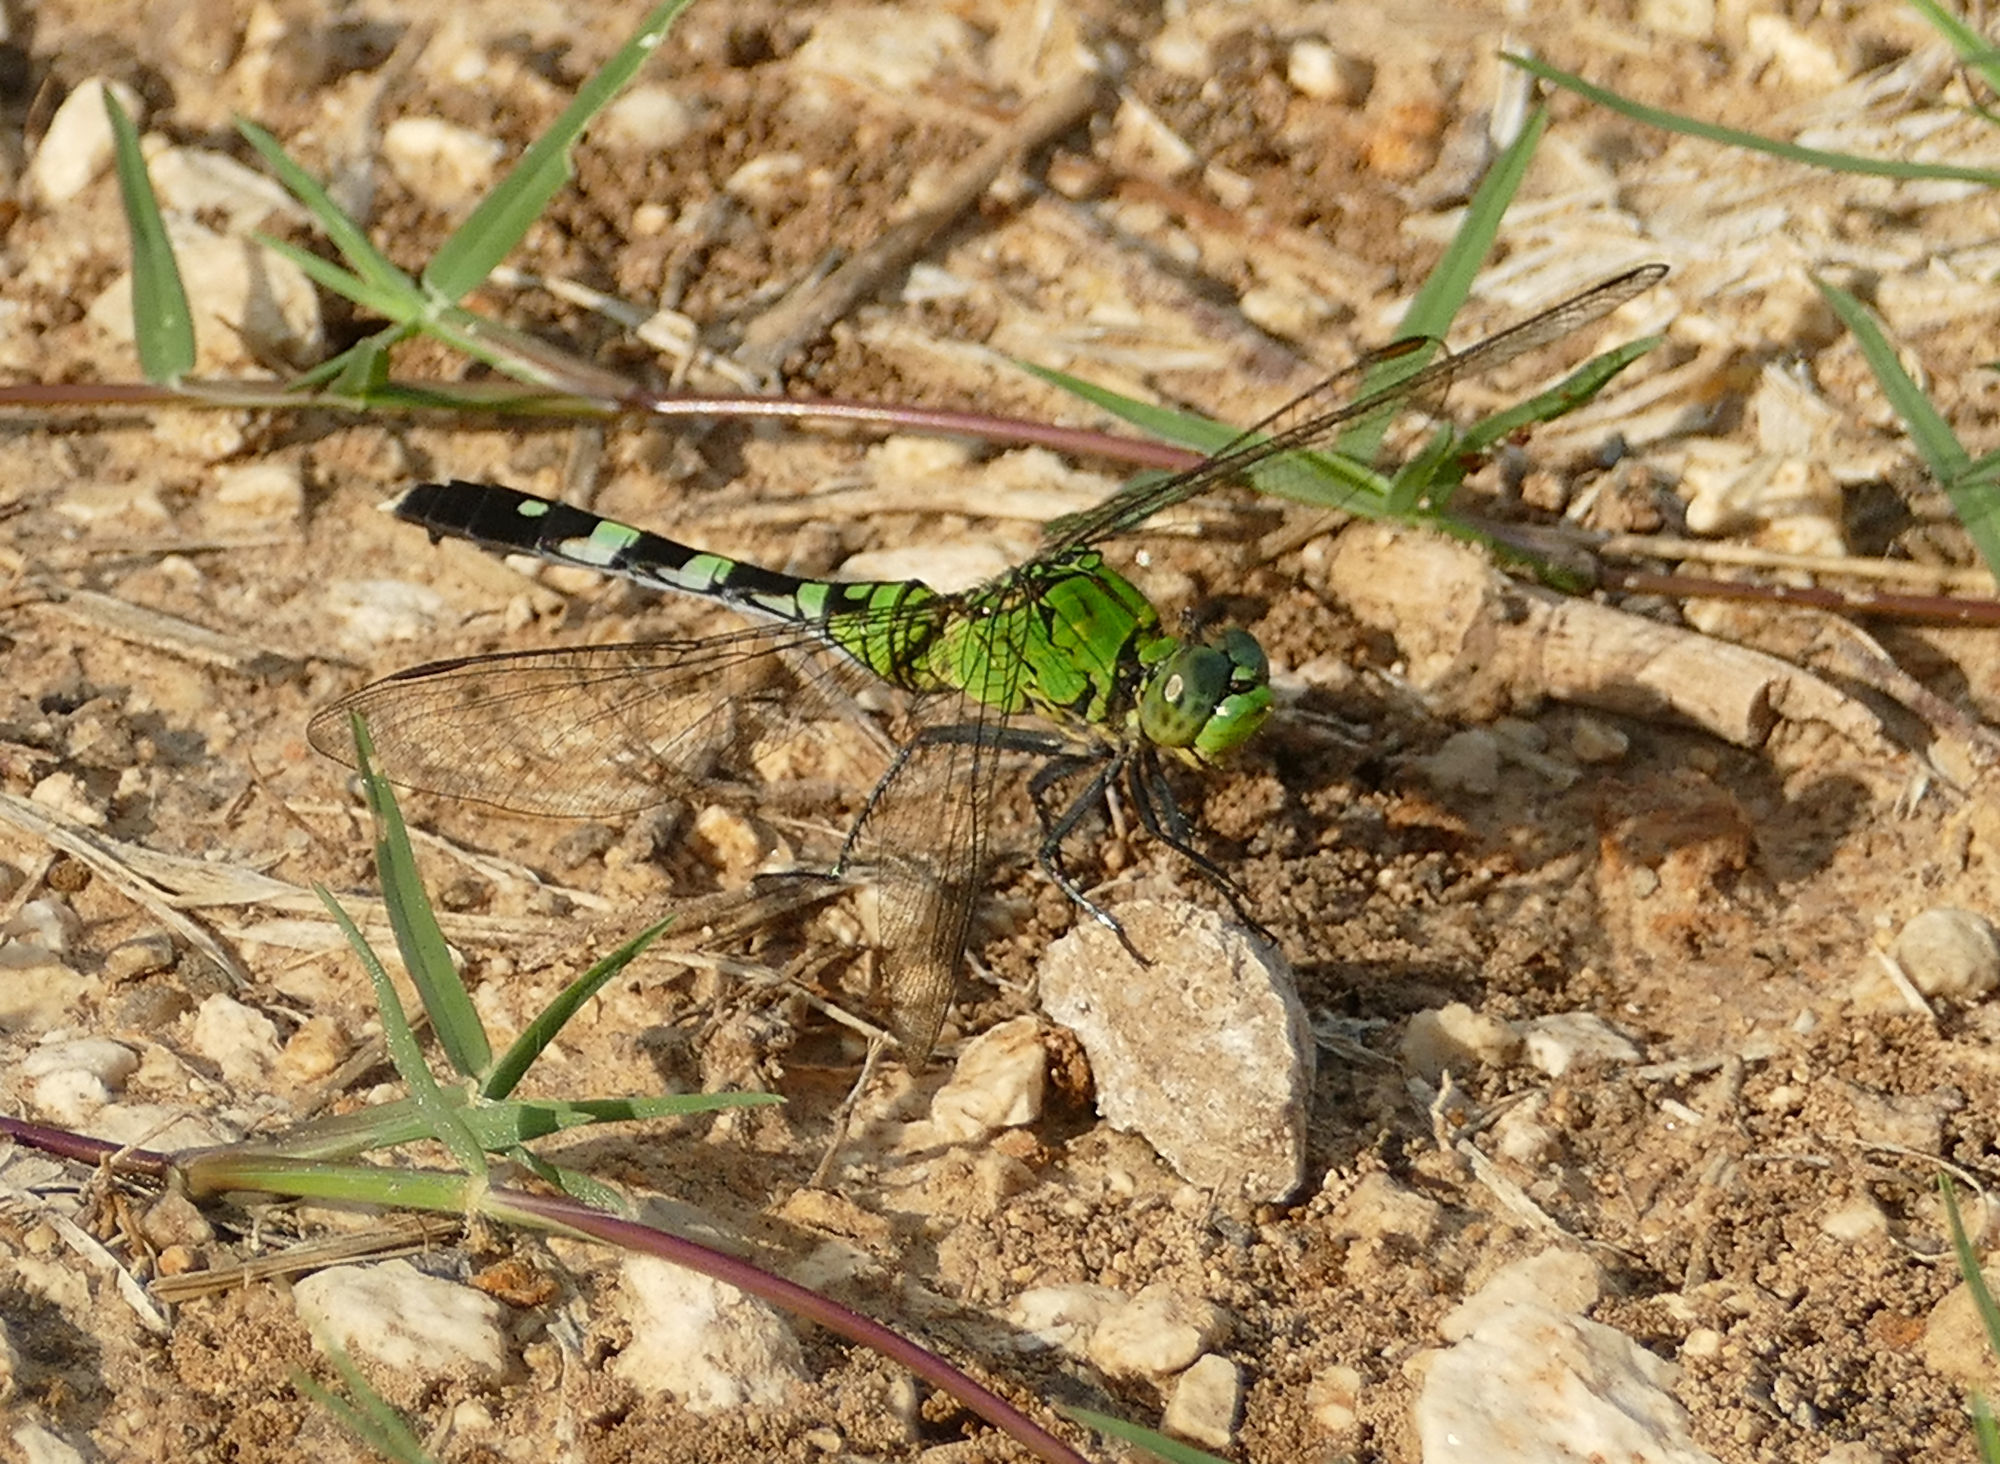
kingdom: Animalia
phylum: Arthropoda
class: Insecta
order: Odonata
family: Libellulidae
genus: Erythemis
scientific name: Erythemis simplicicollis
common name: Eastern pondhawk
